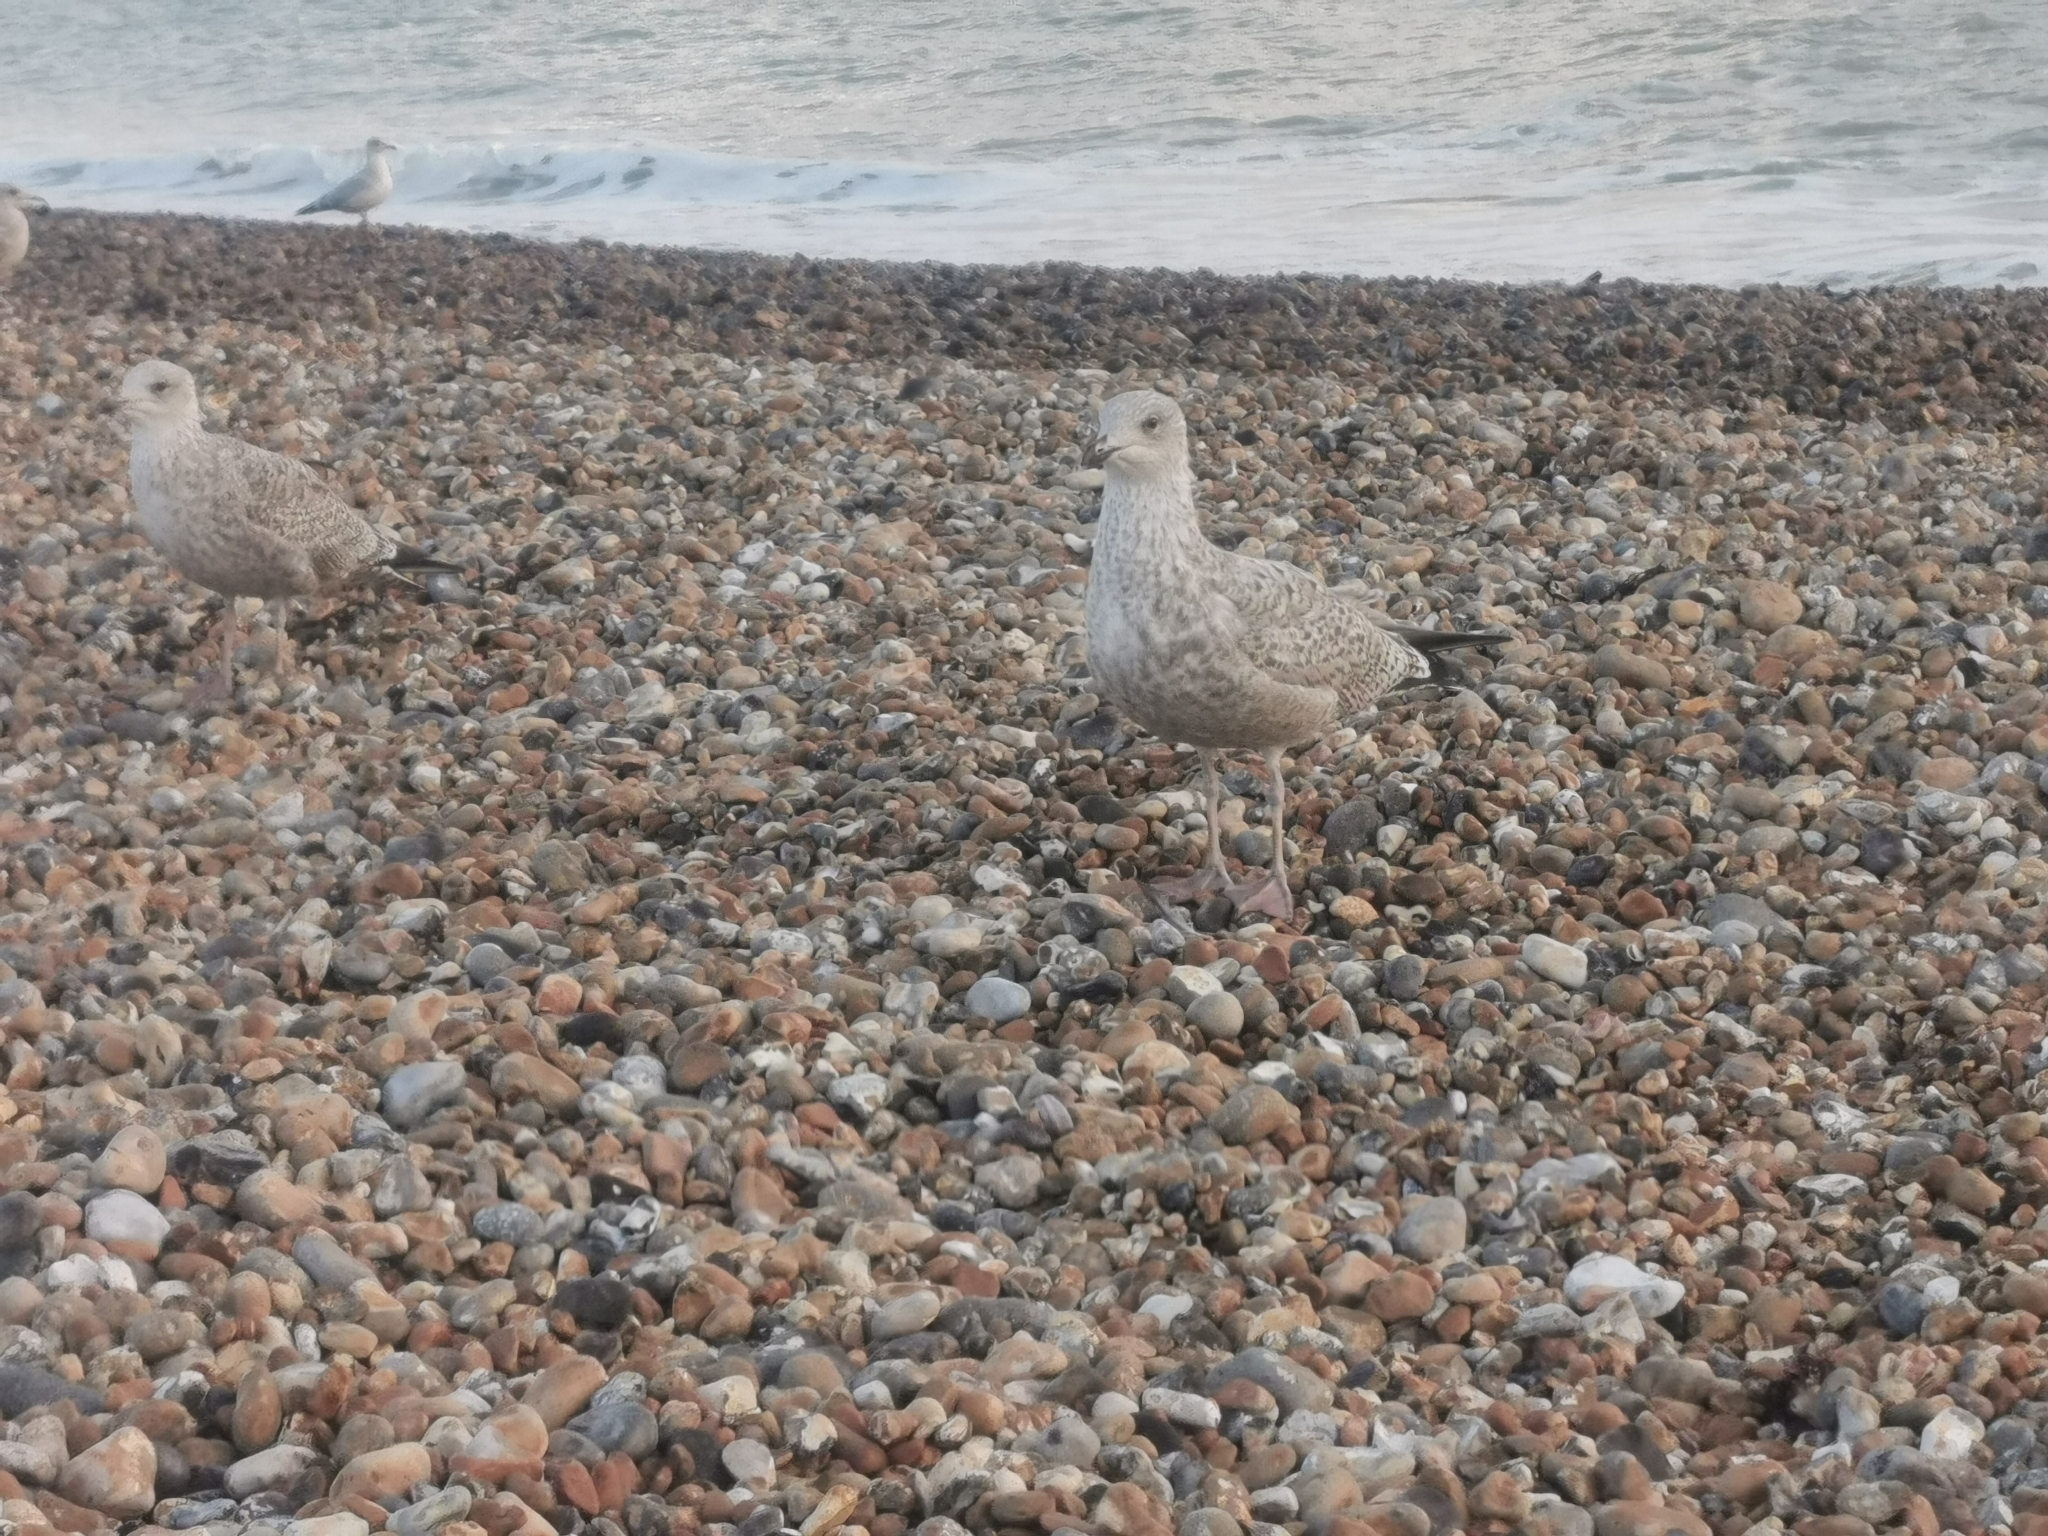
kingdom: Animalia
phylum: Chordata
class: Aves
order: Charadriiformes
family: Laridae
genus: Larus
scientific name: Larus argentatus
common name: Herring gull
